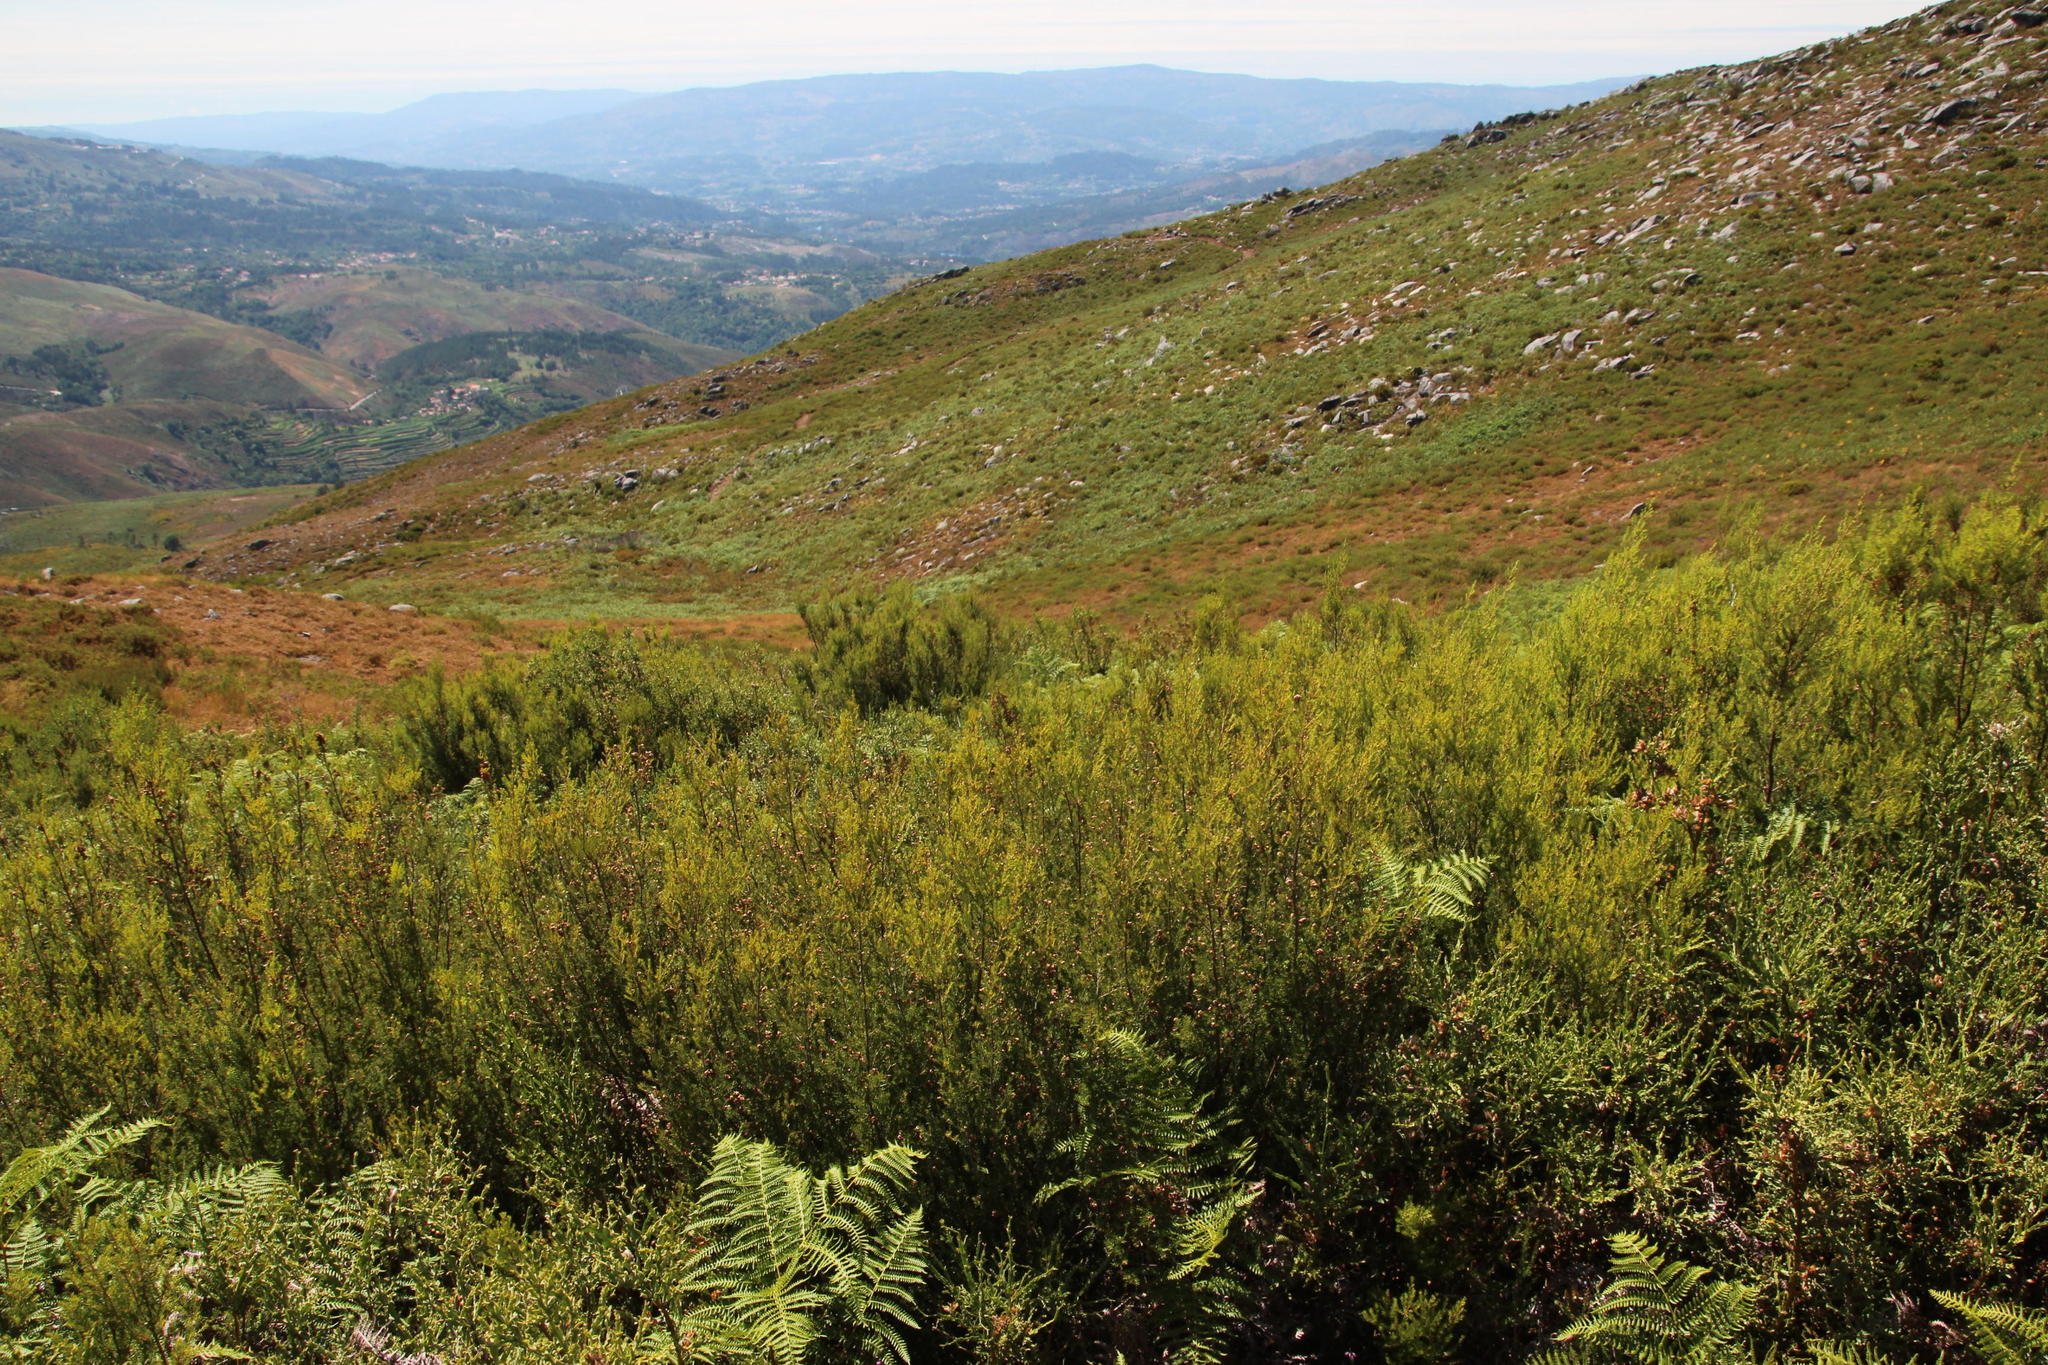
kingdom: Plantae
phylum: Tracheophyta
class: Magnoliopsida
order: Ericales
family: Ericaceae
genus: Erica
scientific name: Erica umbellata
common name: Dwarf spanish heath
